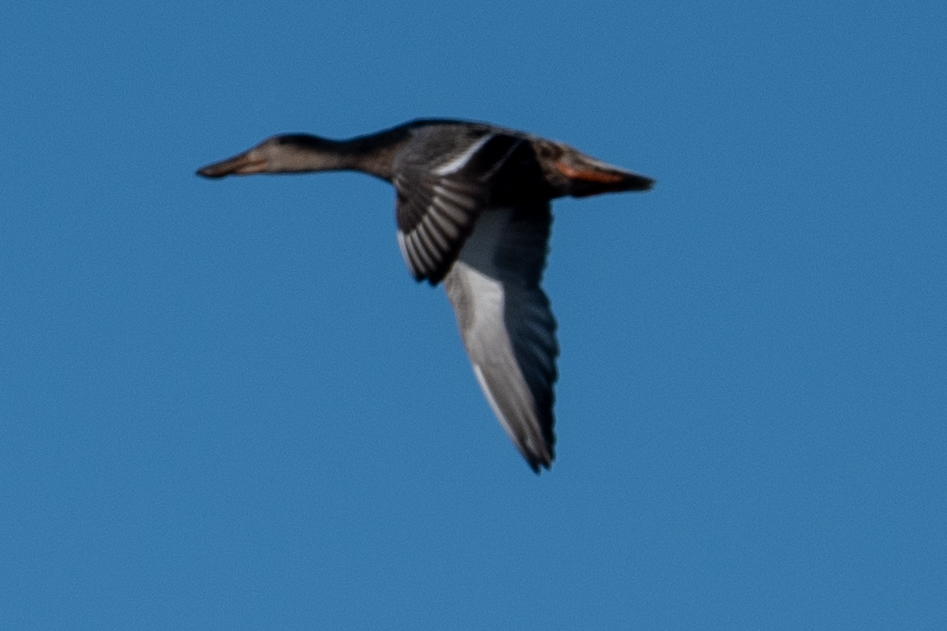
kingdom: Animalia
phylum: Chordata
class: Aves
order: Anseriformes
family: Anatidae
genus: Spatula
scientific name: Spatula clypeata
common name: Northern shoveler
